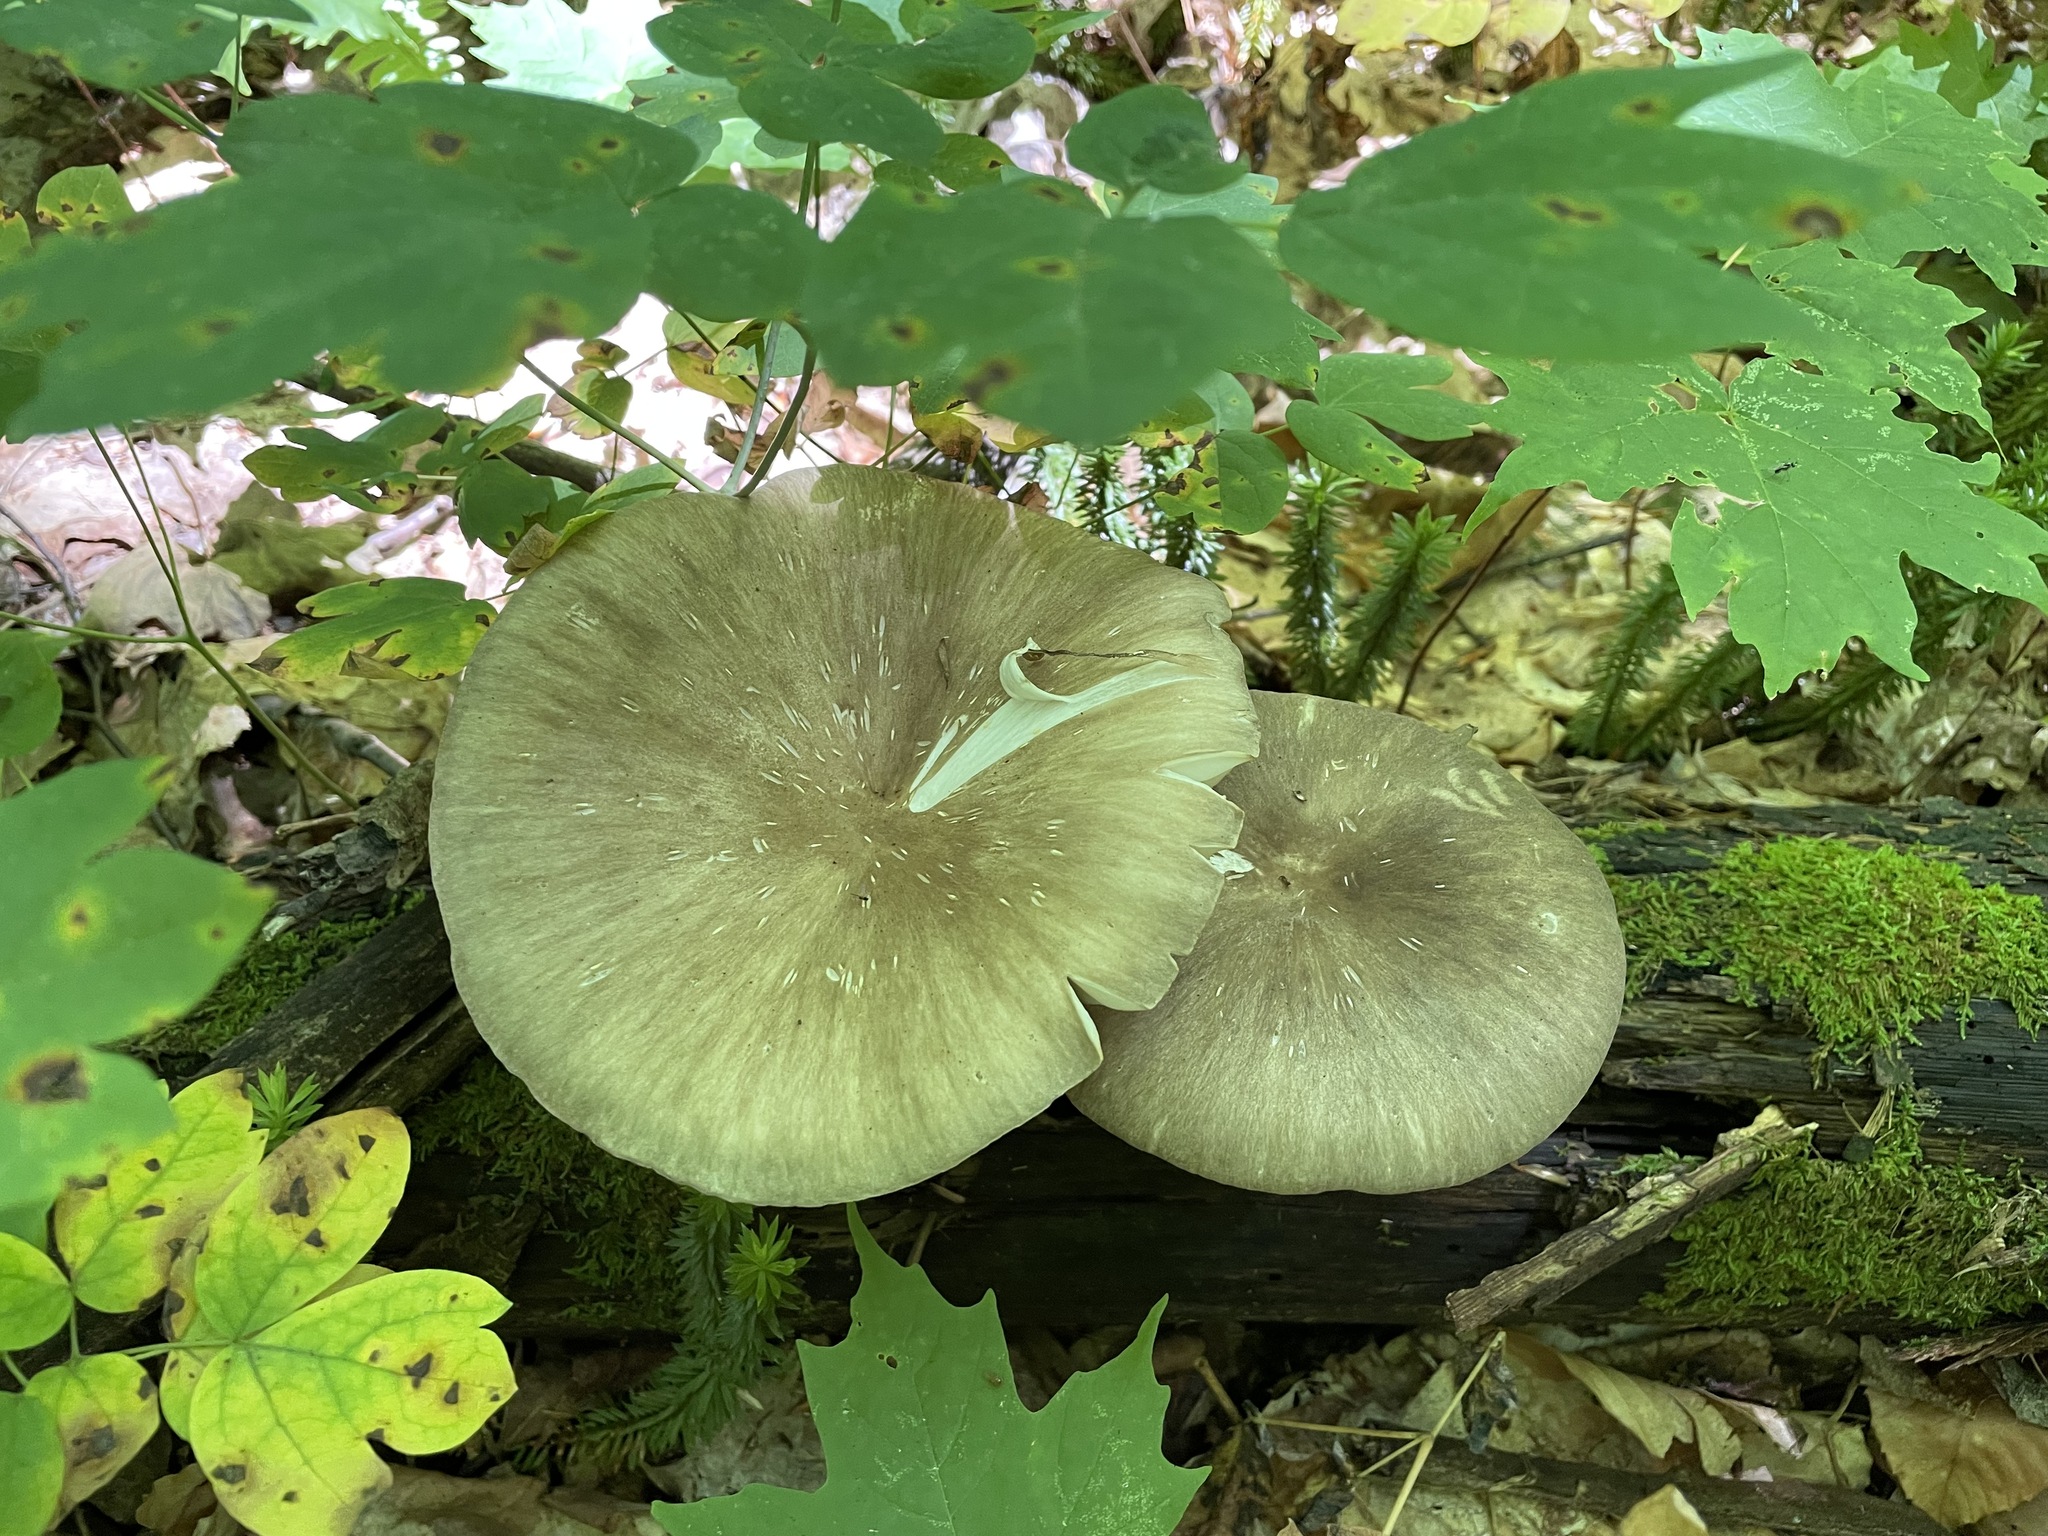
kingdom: Fungi
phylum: Basidiomycota
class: Agaricomycetes
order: Agaricales
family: Tricholomataceae
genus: Megacollybia
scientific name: Megacollybia rodmanii
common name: Eastern american platterful mushroom
